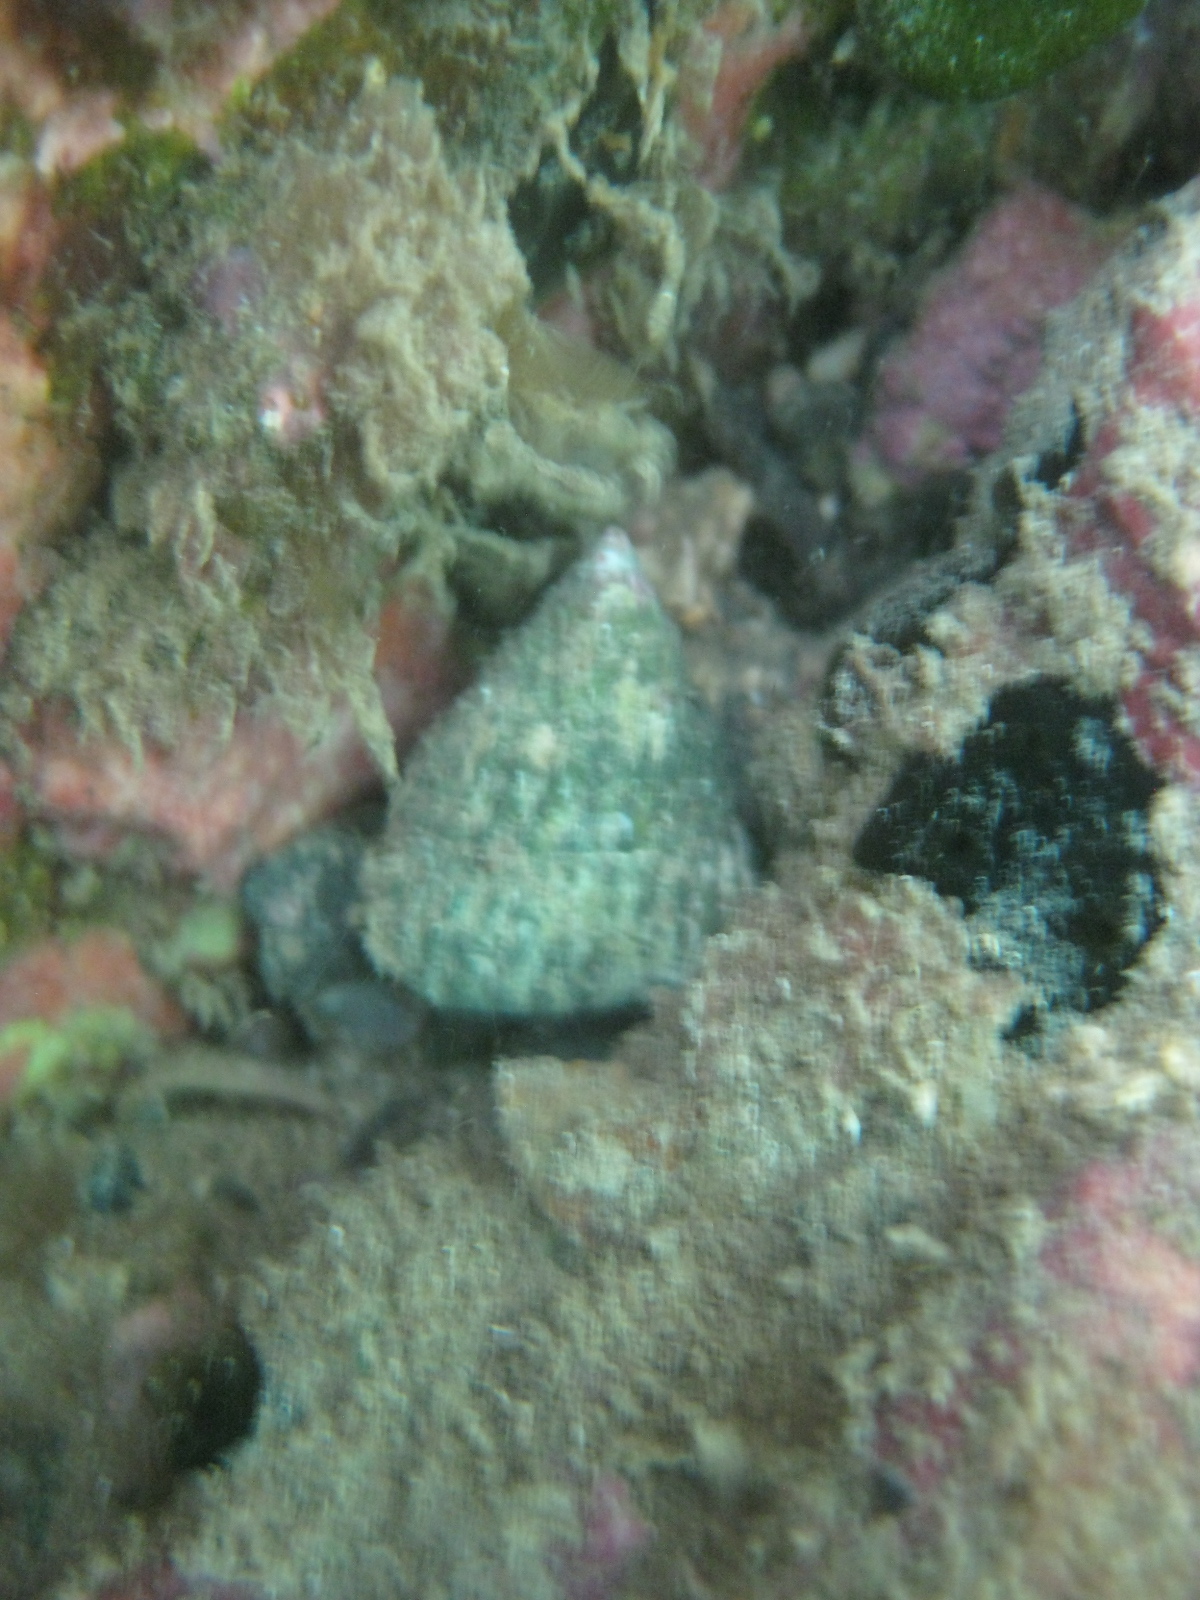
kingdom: Animalia
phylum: Mollusca
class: Gastropoda
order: Trochida
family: Trochidae
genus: Coelotrochus
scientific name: Coelotrochus viridis
